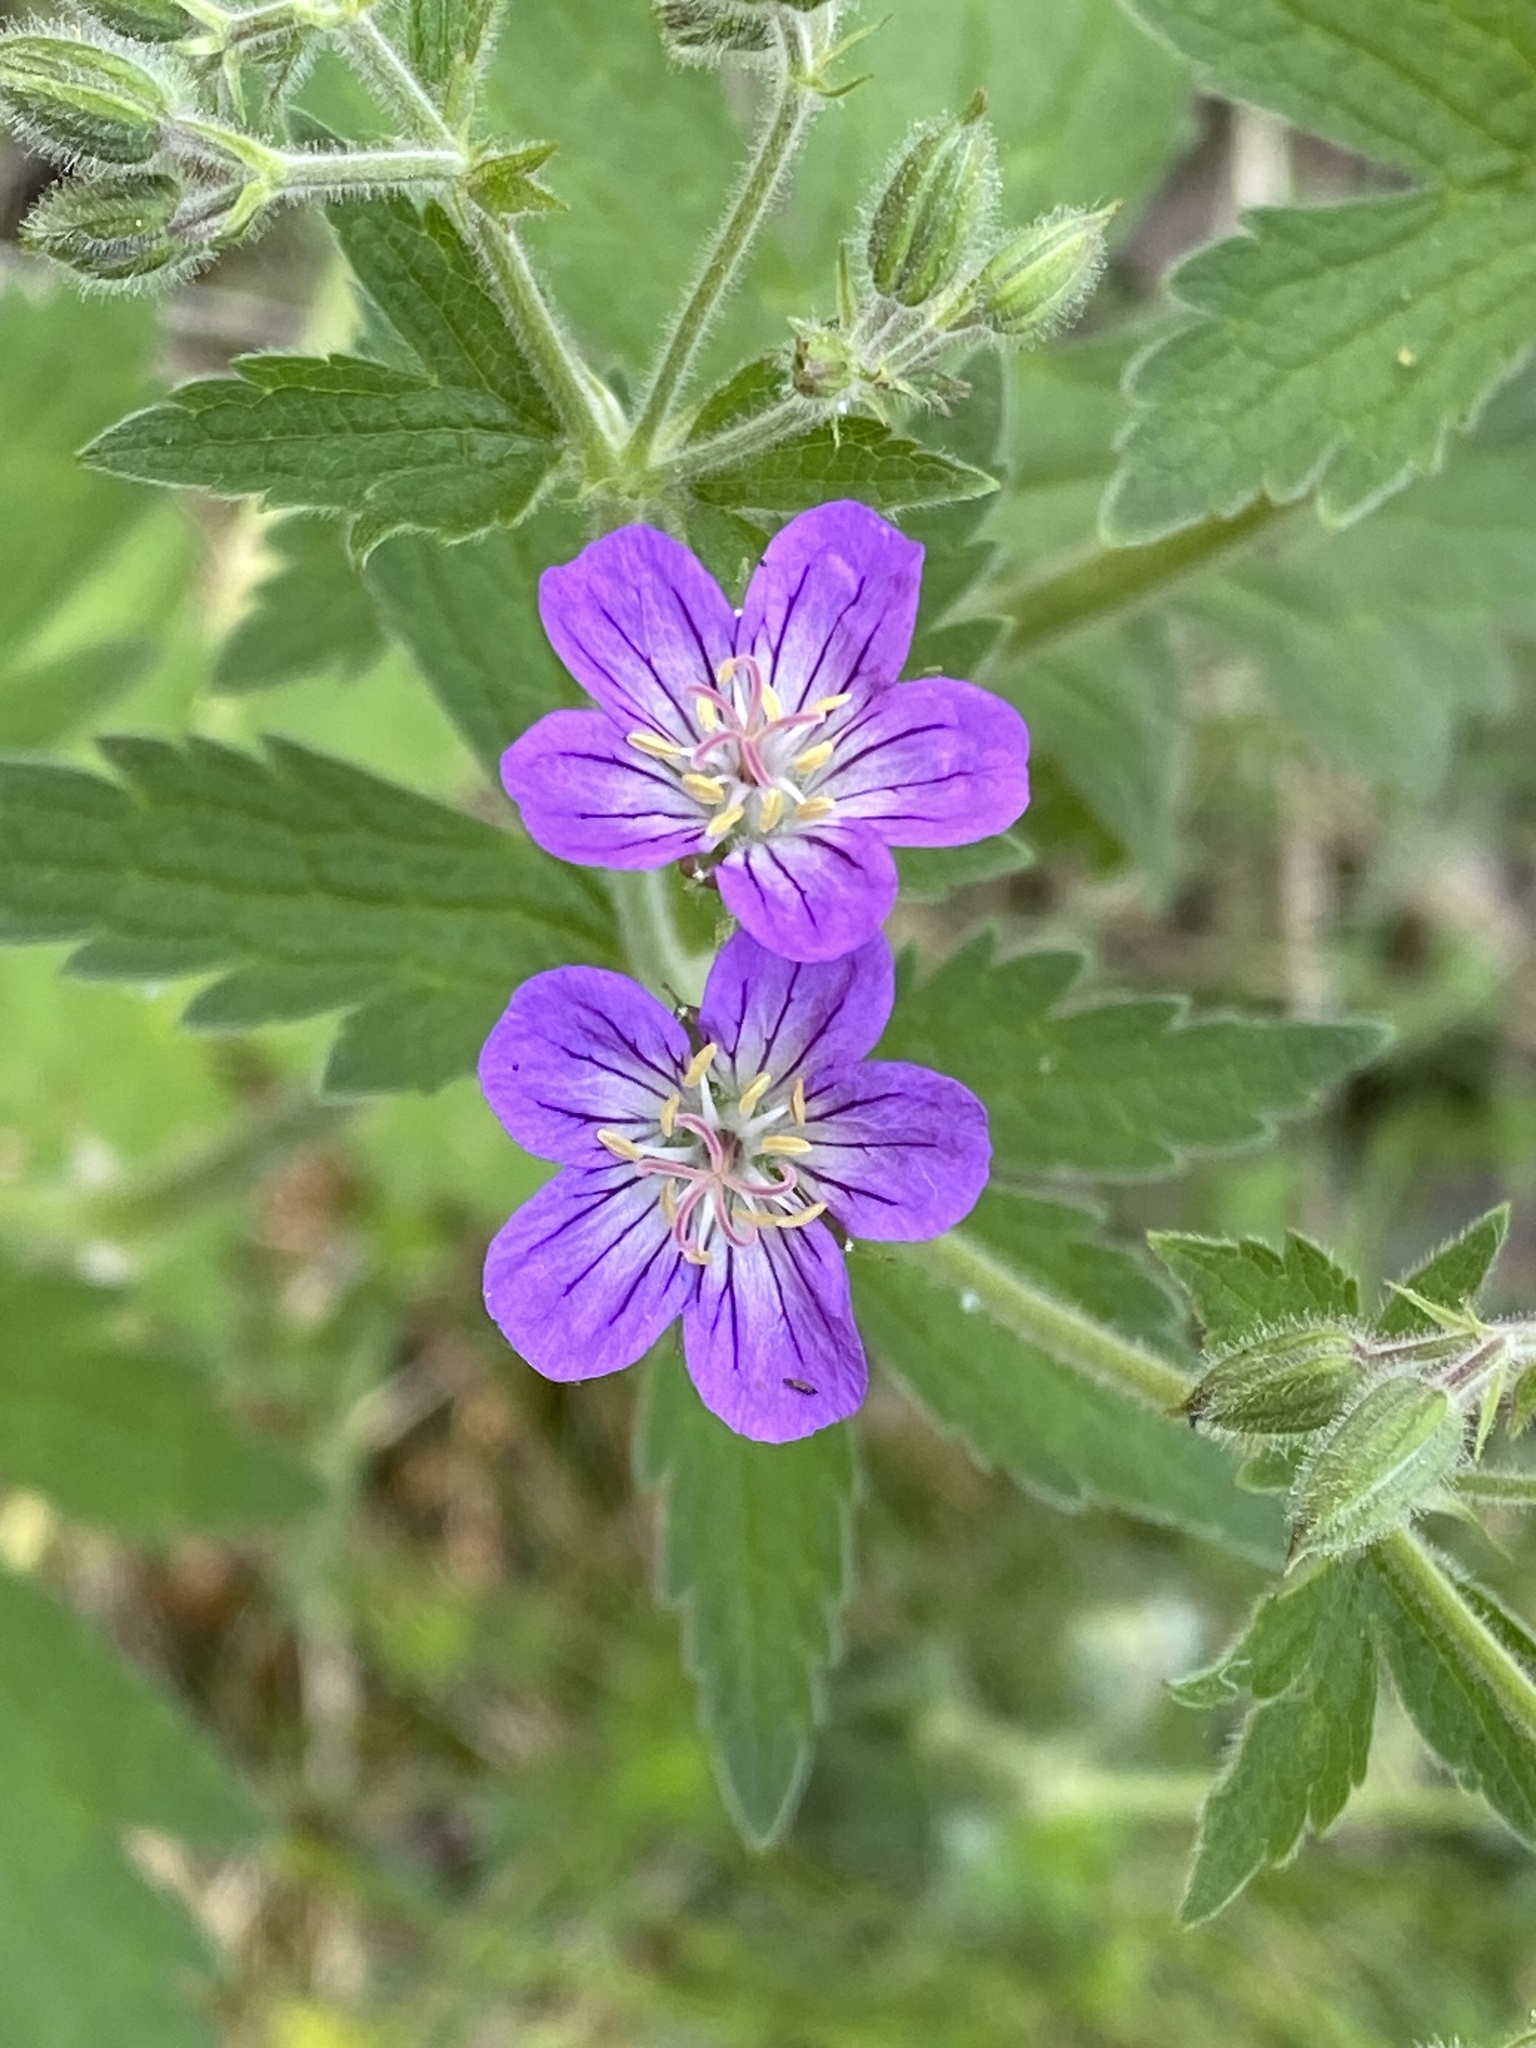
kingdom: Plantae
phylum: Tracheophyta
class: Magnoliopsida
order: Geraniales
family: Geraniaceae
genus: Geranium
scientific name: Geranium sylvaticum
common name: Wood crane's-bill
